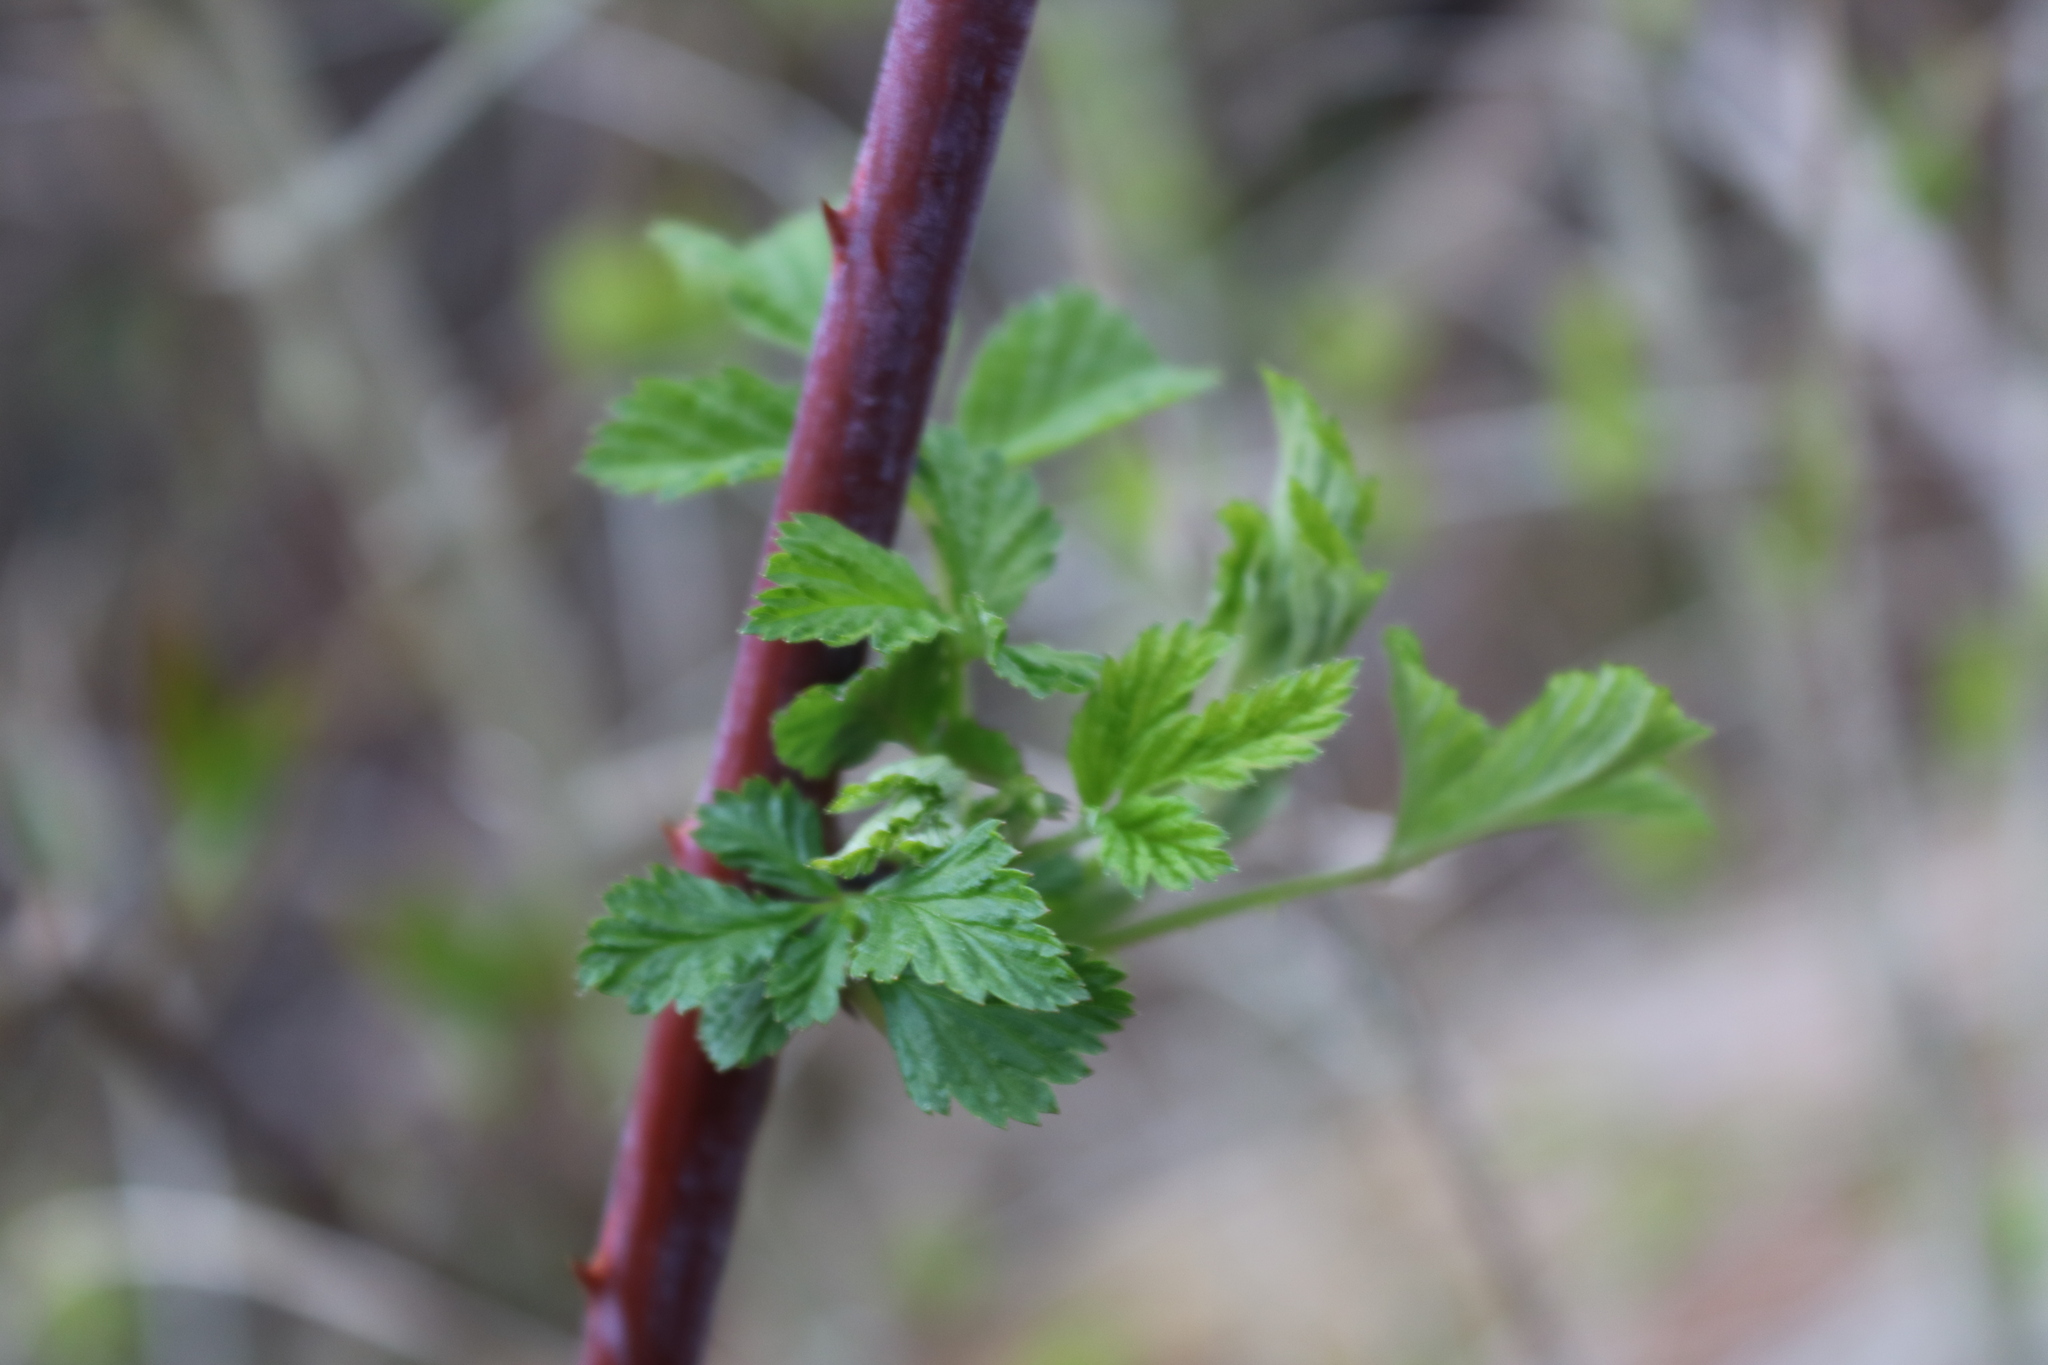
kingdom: Plantae
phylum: Tracheophyta
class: Magnoliopsida
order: Rosales
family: Rosaceae
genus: Rubus
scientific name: Rubus occidentalis
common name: Black raspberry
